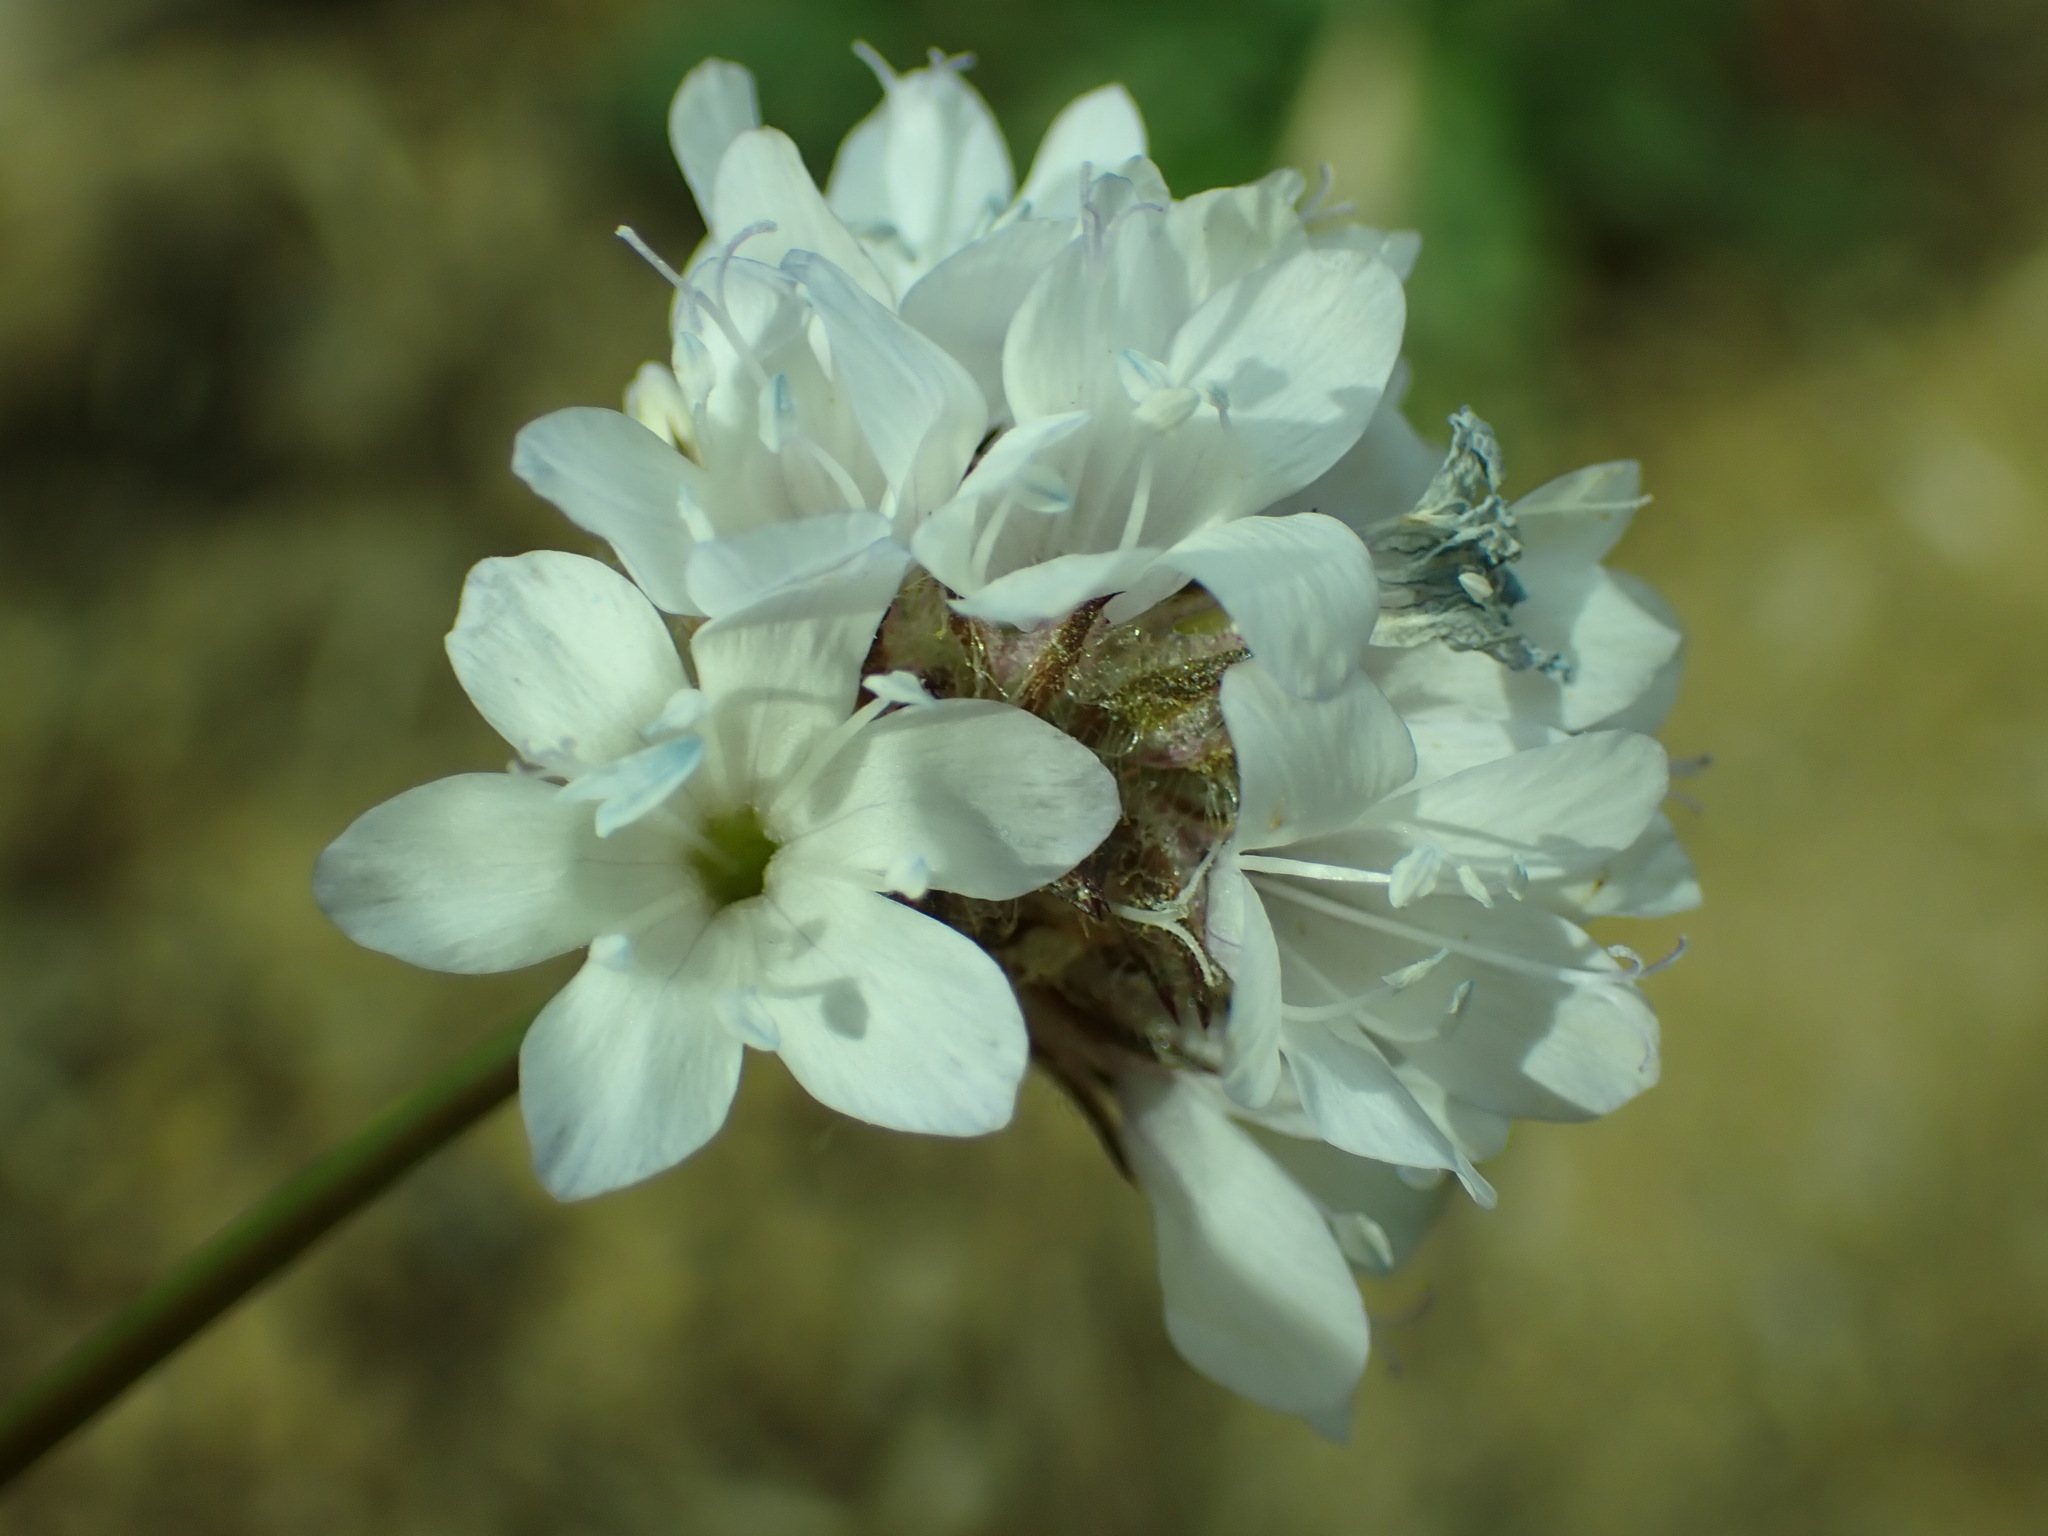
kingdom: Plantae
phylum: Tracheophyta
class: Magnoliopsida
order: Ericales
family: Polemoniaceae
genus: Gilia
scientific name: Gilia capitata
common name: Bluehead gilia
